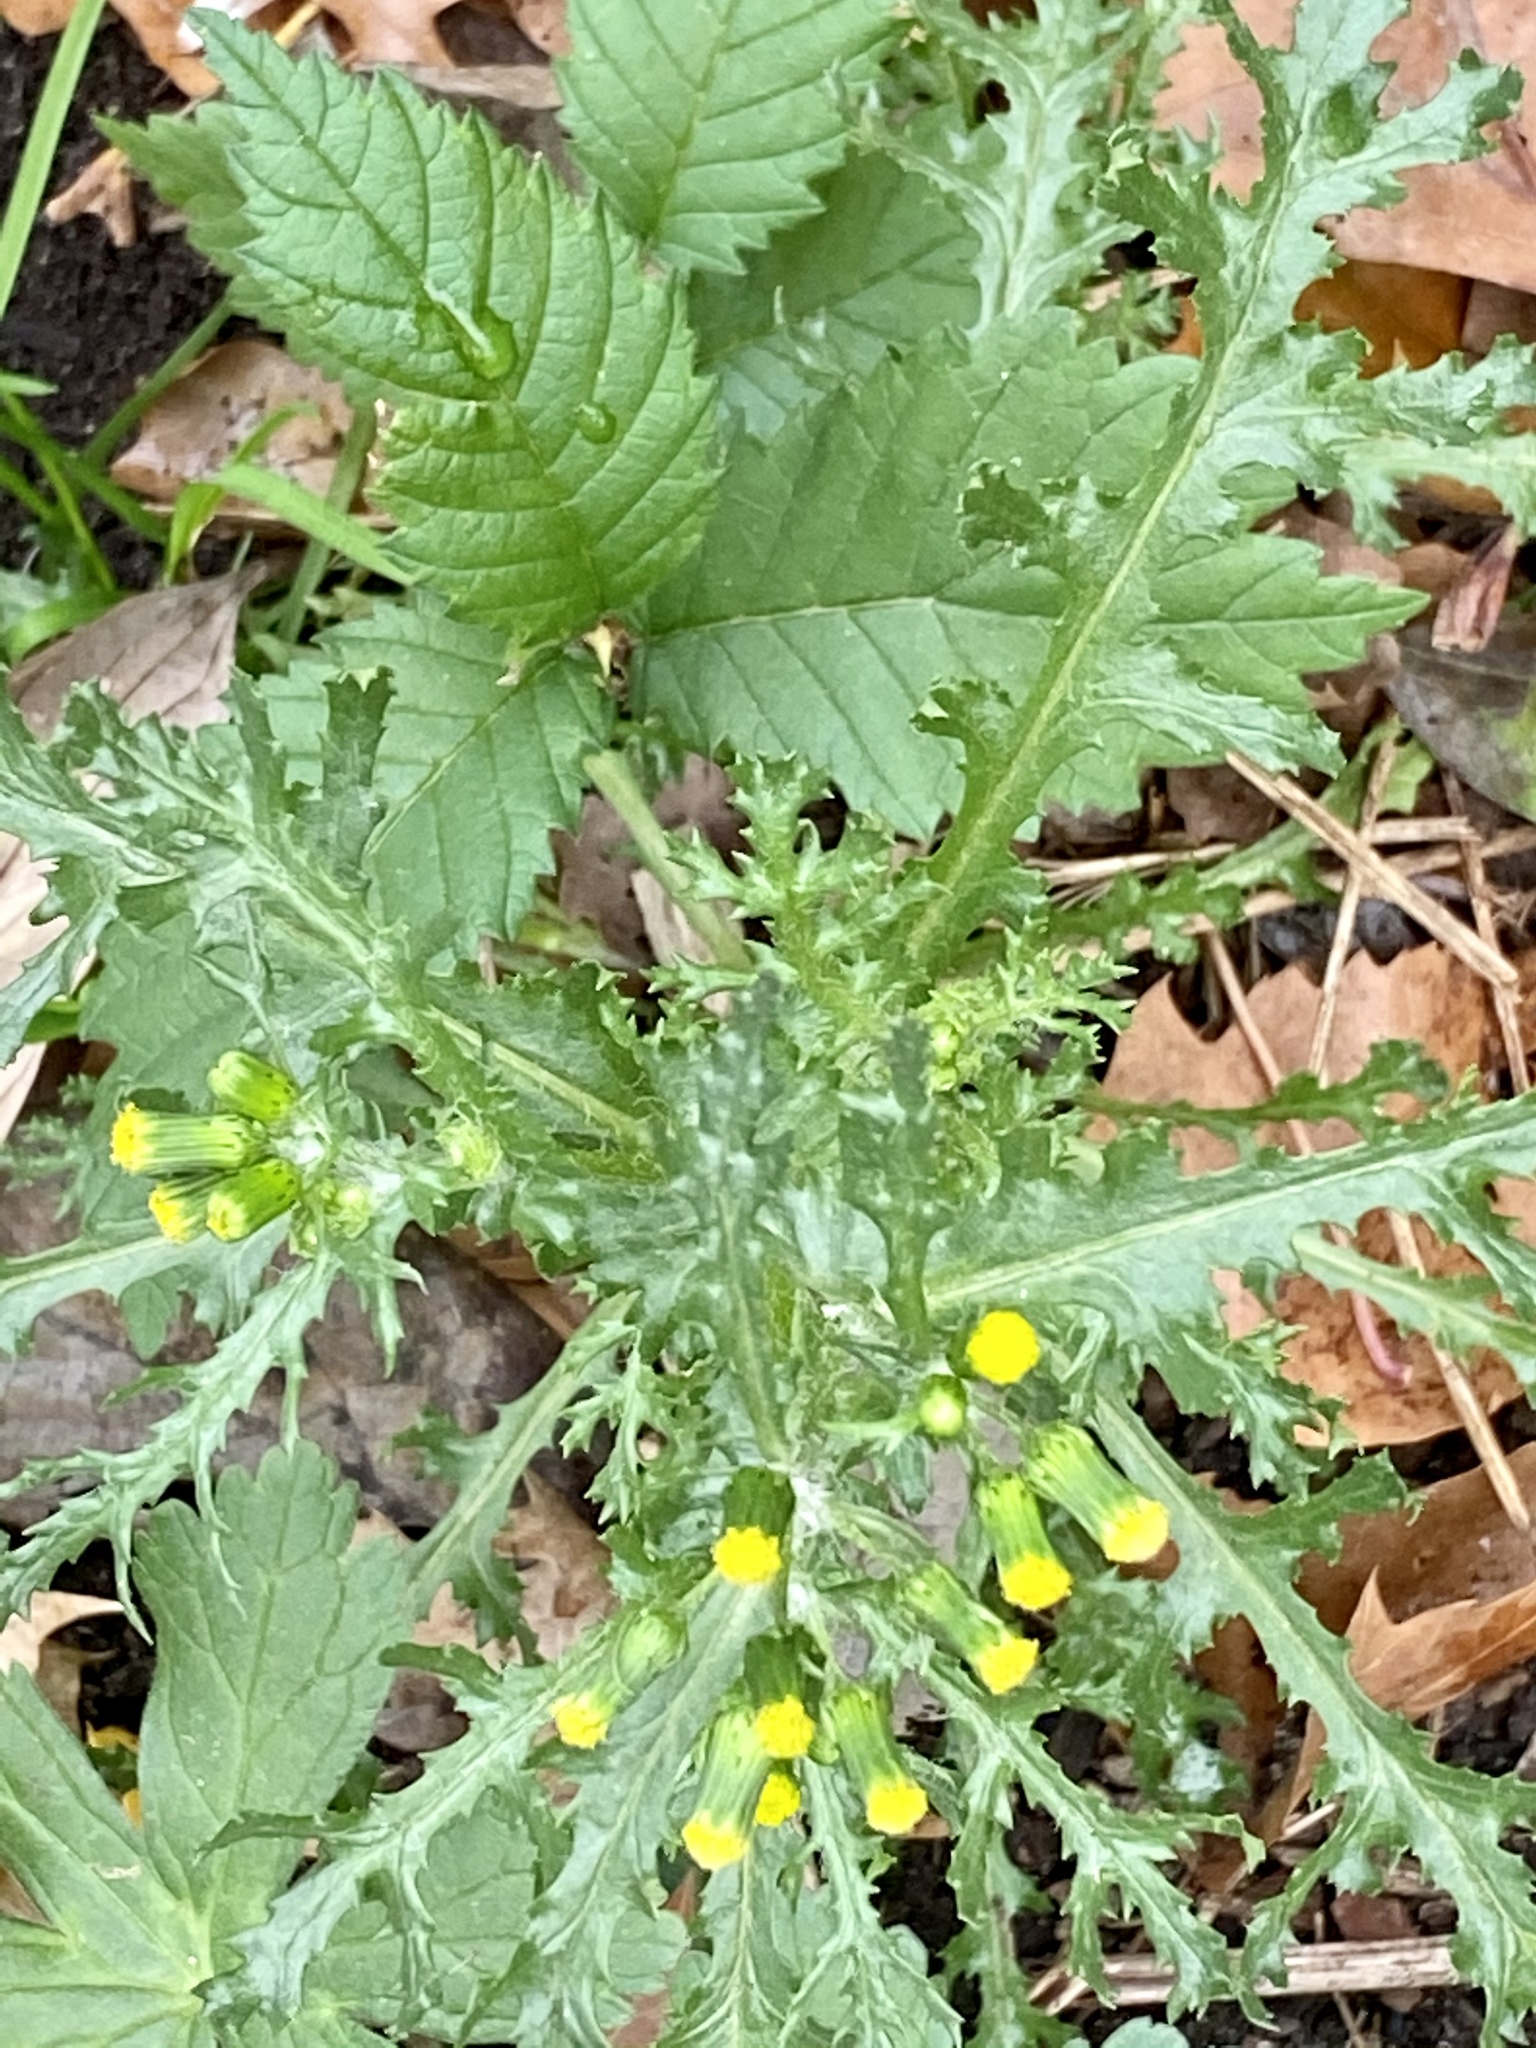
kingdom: Plantae
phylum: Tracheophyta
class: Magnoliopsida
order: Asterales
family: Asteraceae
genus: Senecio
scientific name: Senecio vulgaris
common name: Old-man-in-the-spring
